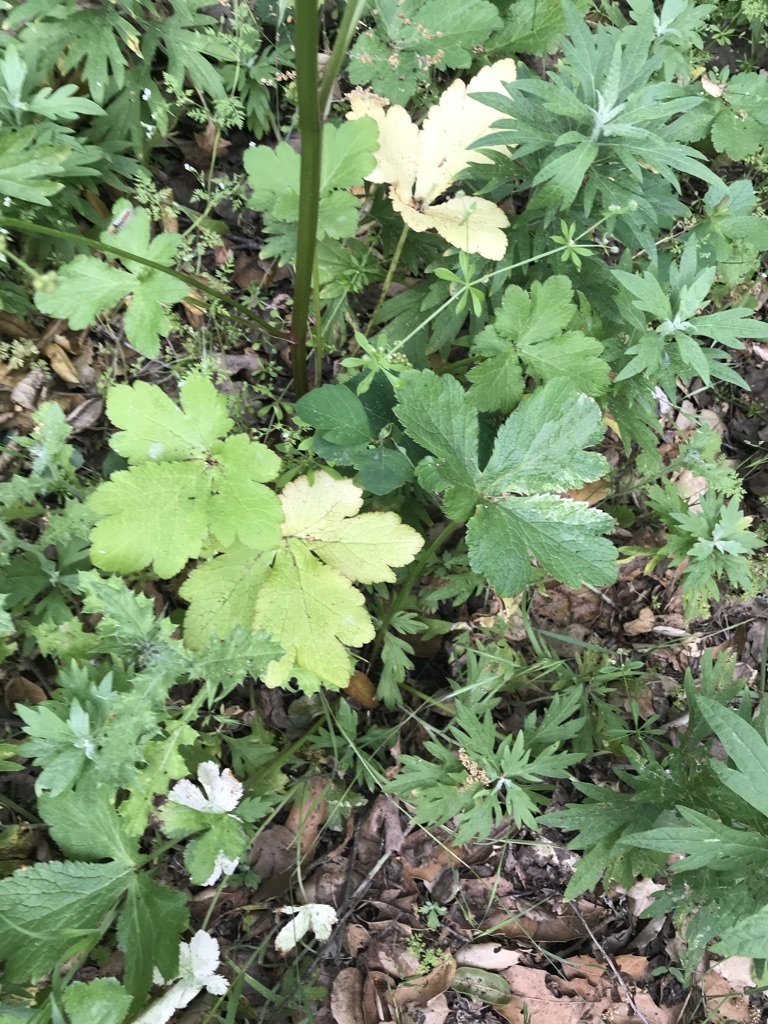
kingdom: Plantae
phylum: Tracheophyta
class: Magnoliopsida
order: Apiales
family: Apiaceae
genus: Sanicula
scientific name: Sanicula crassicaulis
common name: Western snakeroot
